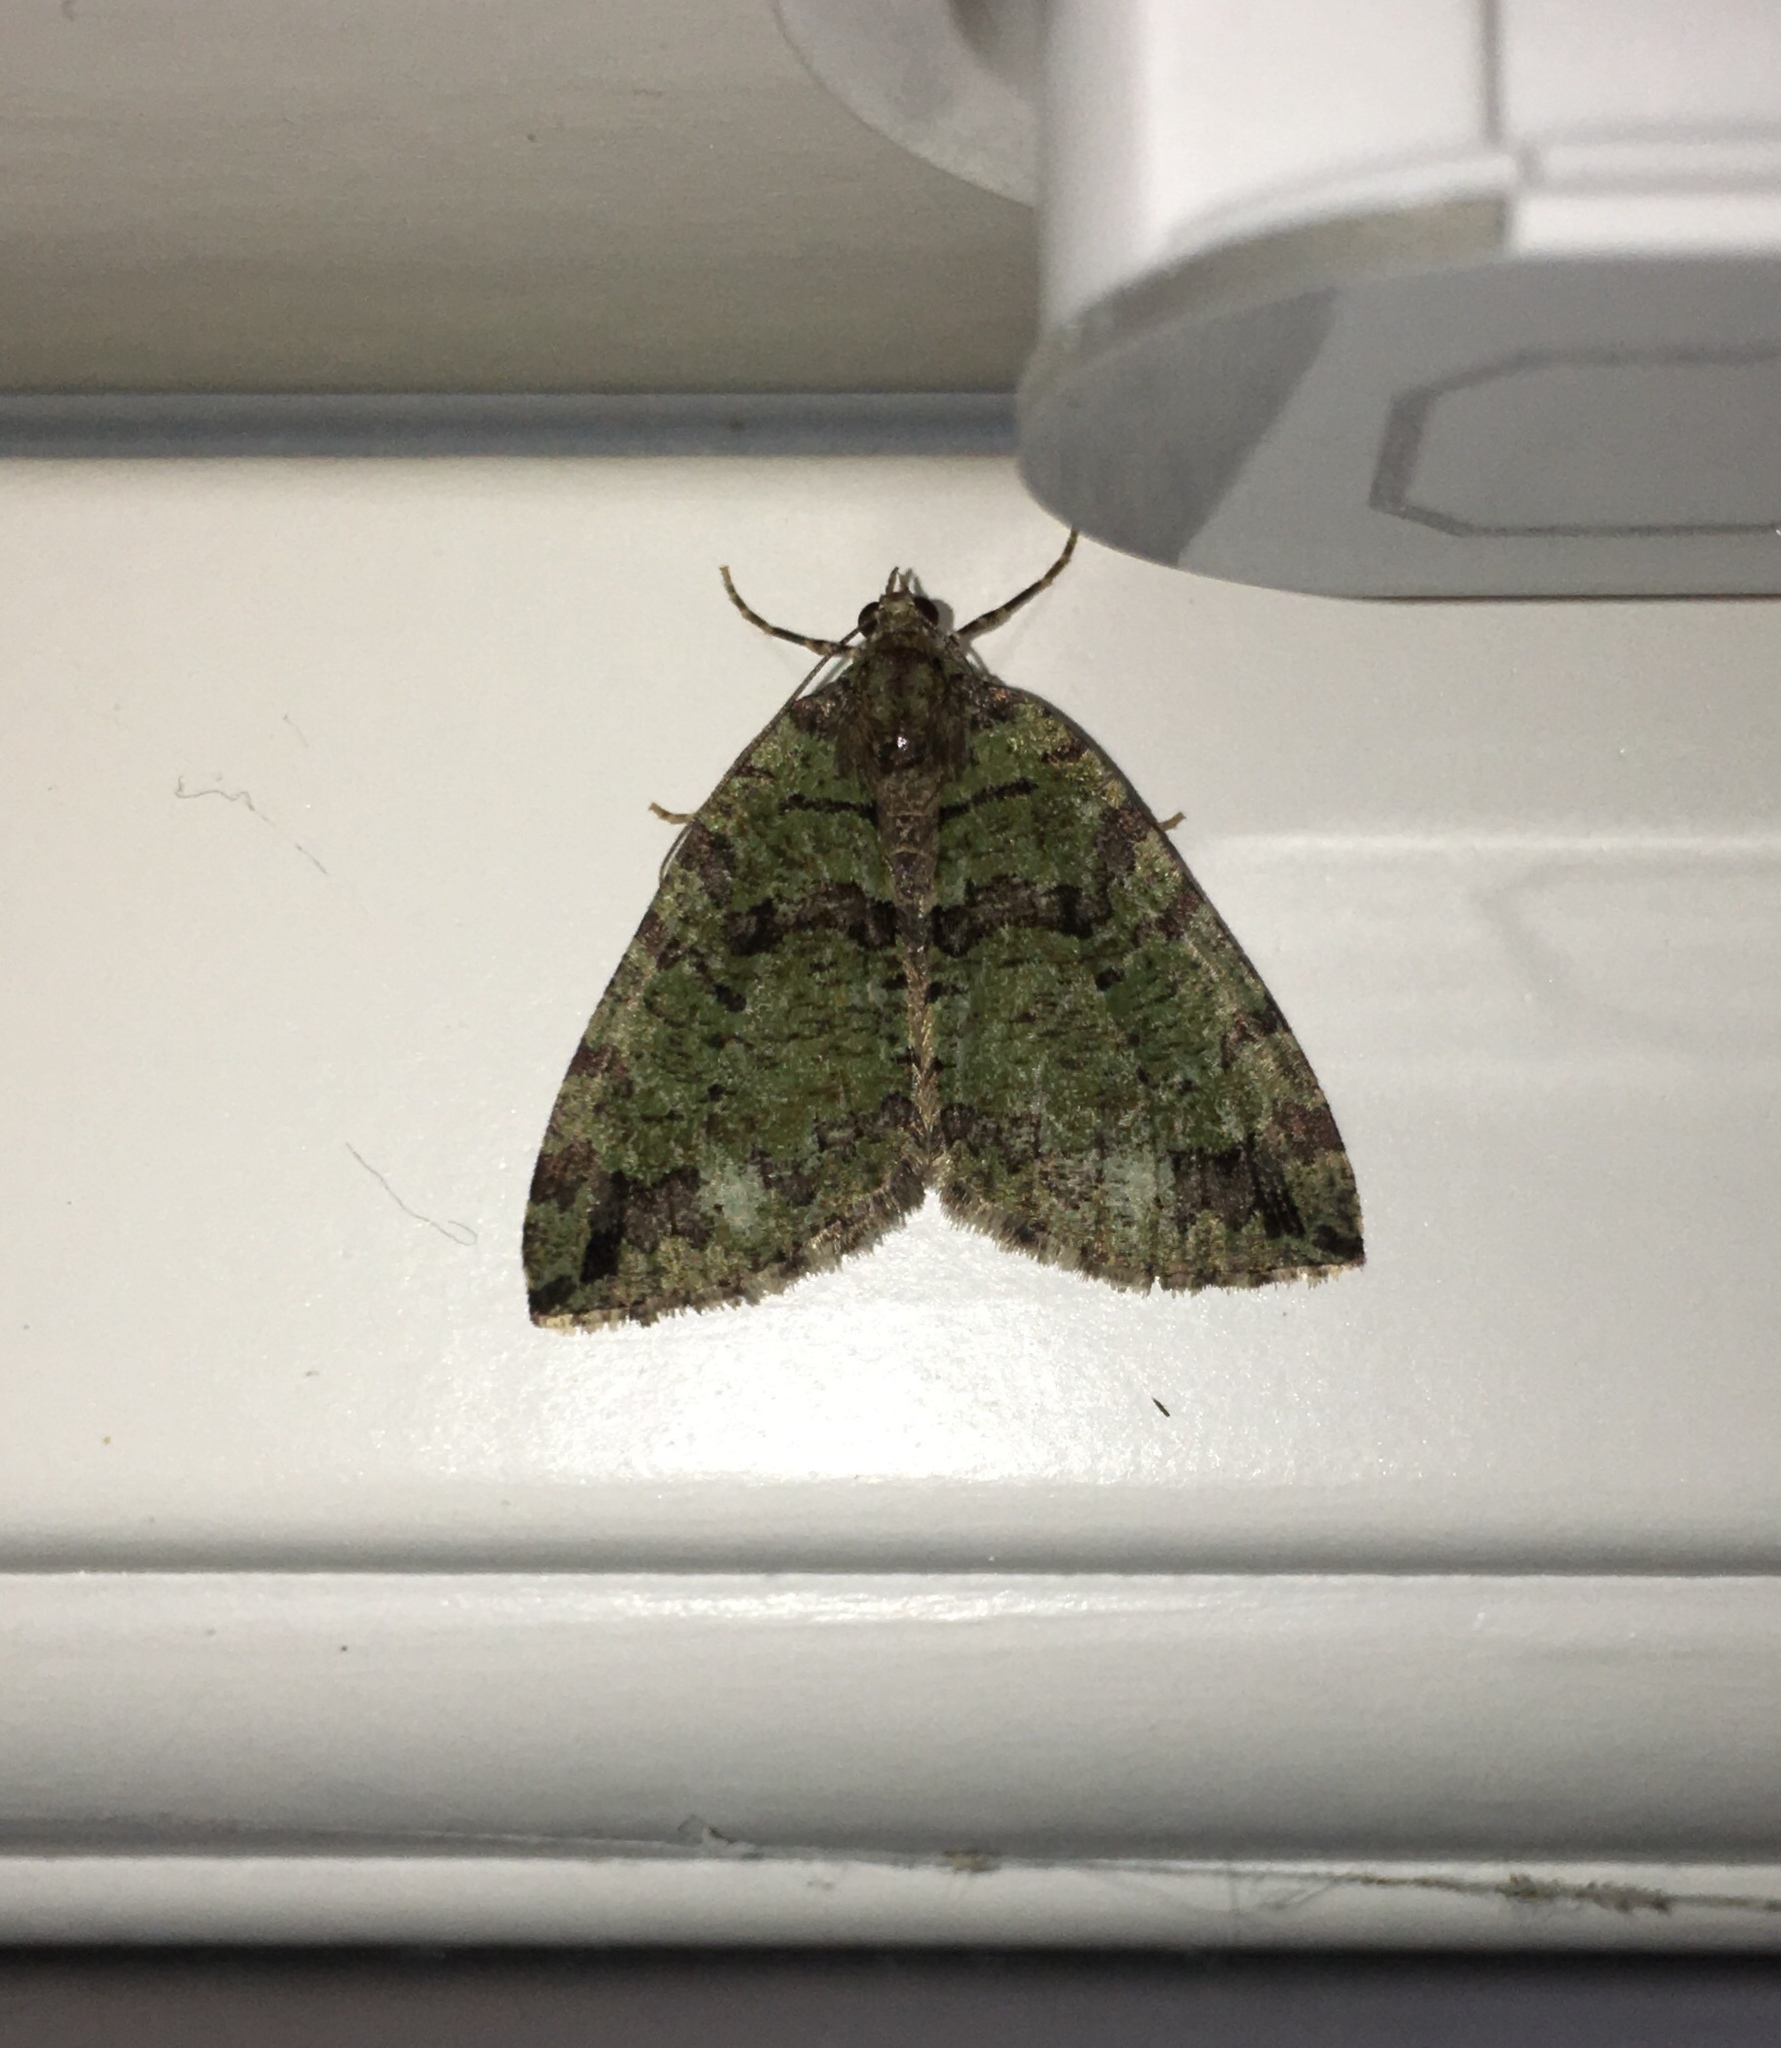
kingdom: Animalia
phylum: Arthropoda
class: Insecta
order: Lepidoptera
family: Geometridae
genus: Hydriomena
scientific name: Hydriomena furcata
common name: July highflyer
